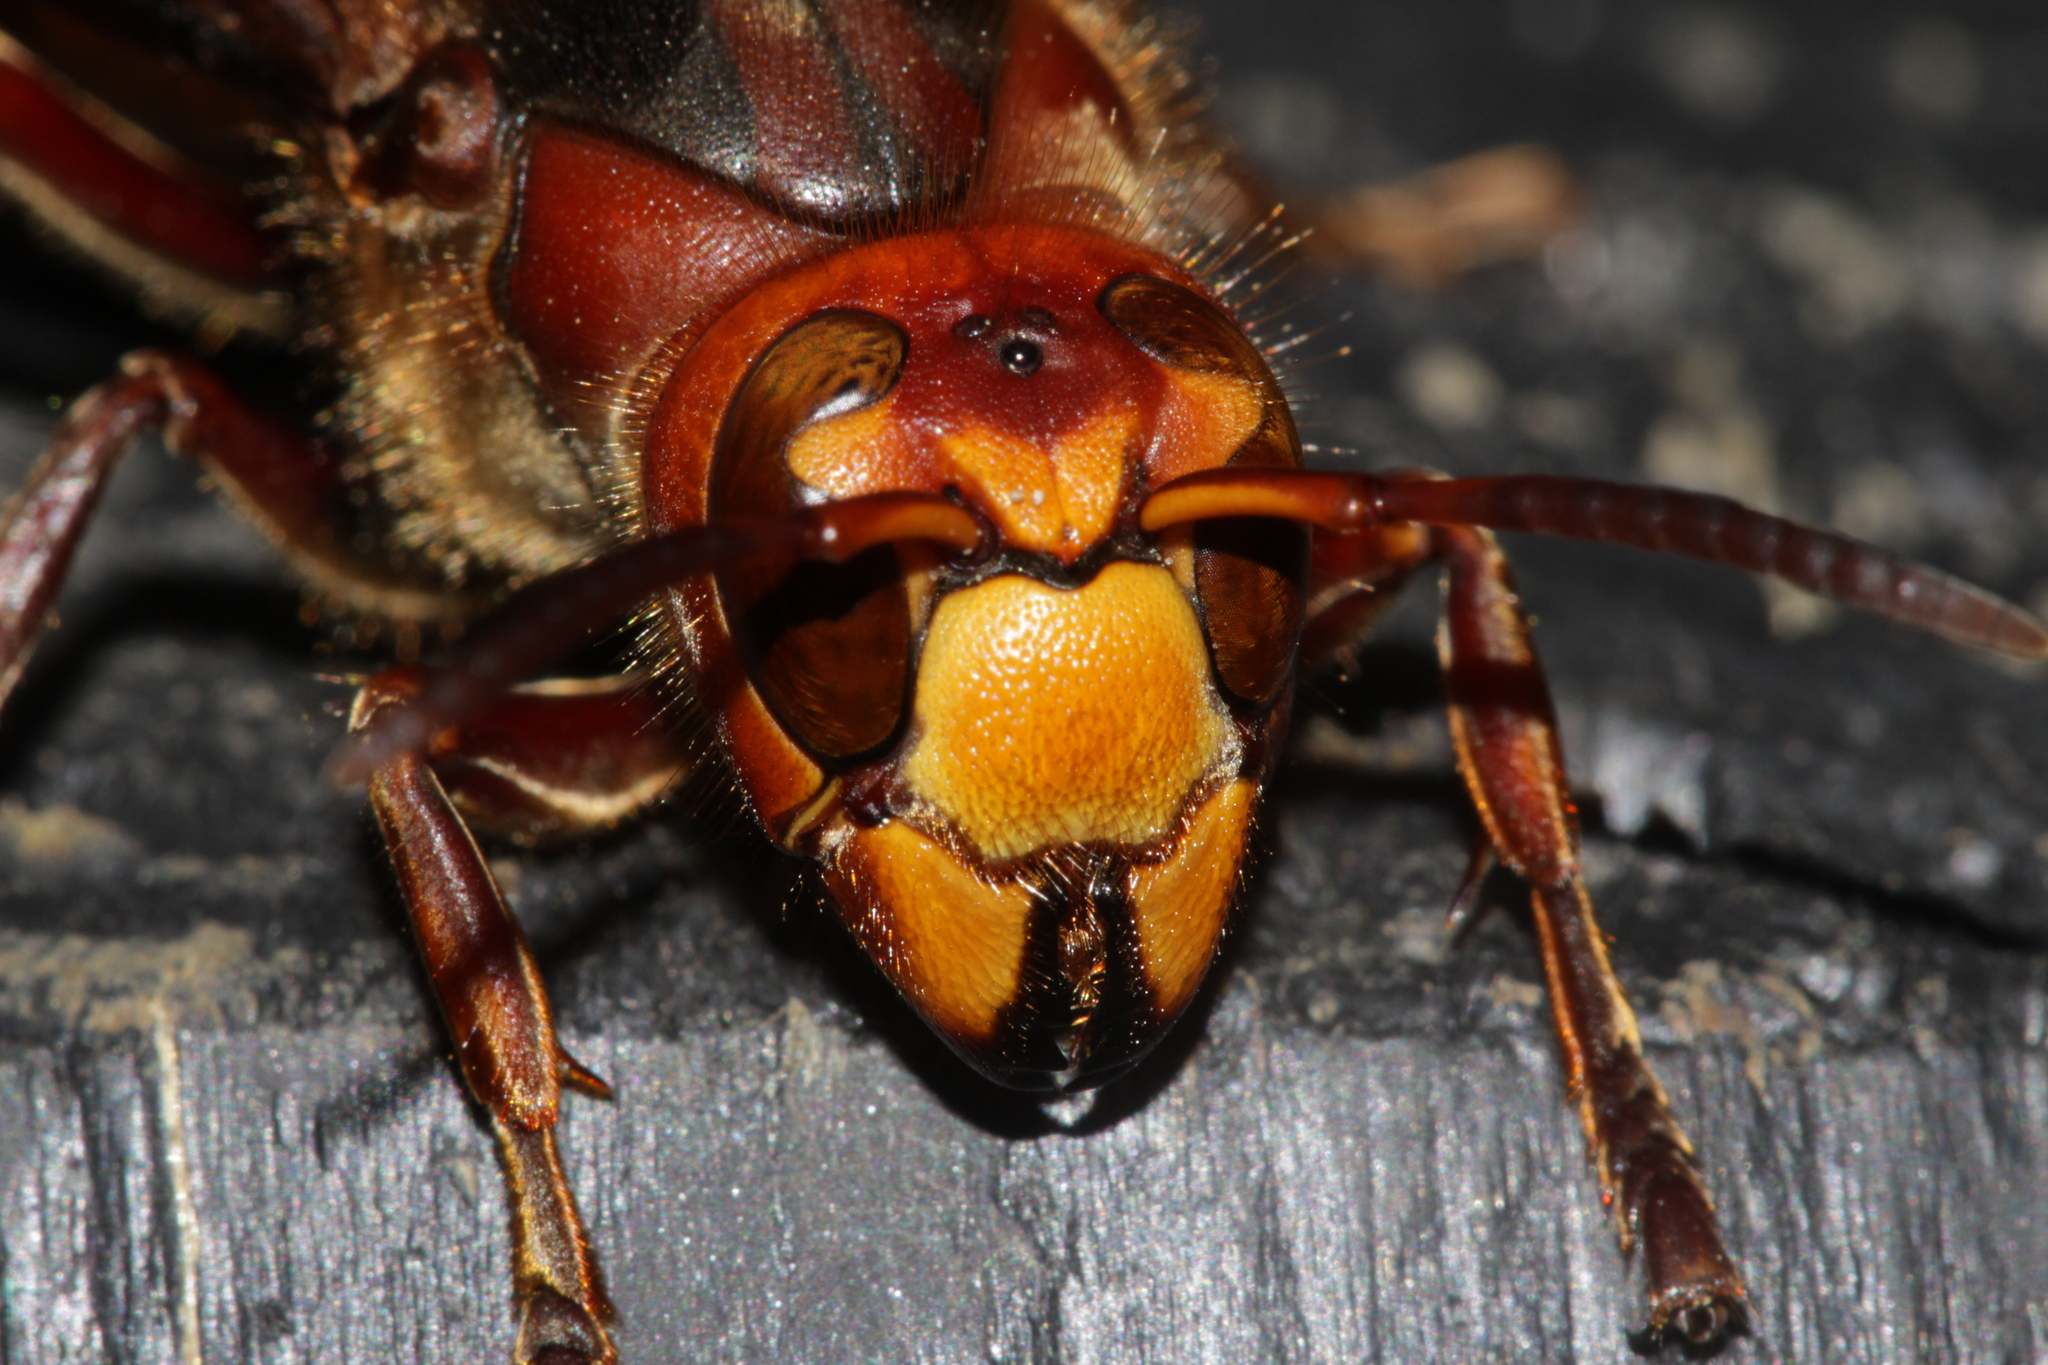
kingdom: Animalia
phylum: Arthropoda
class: Insecta
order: Hymenoptera
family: Vespidae
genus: Vespa
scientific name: Vespa crabro
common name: Hornet
